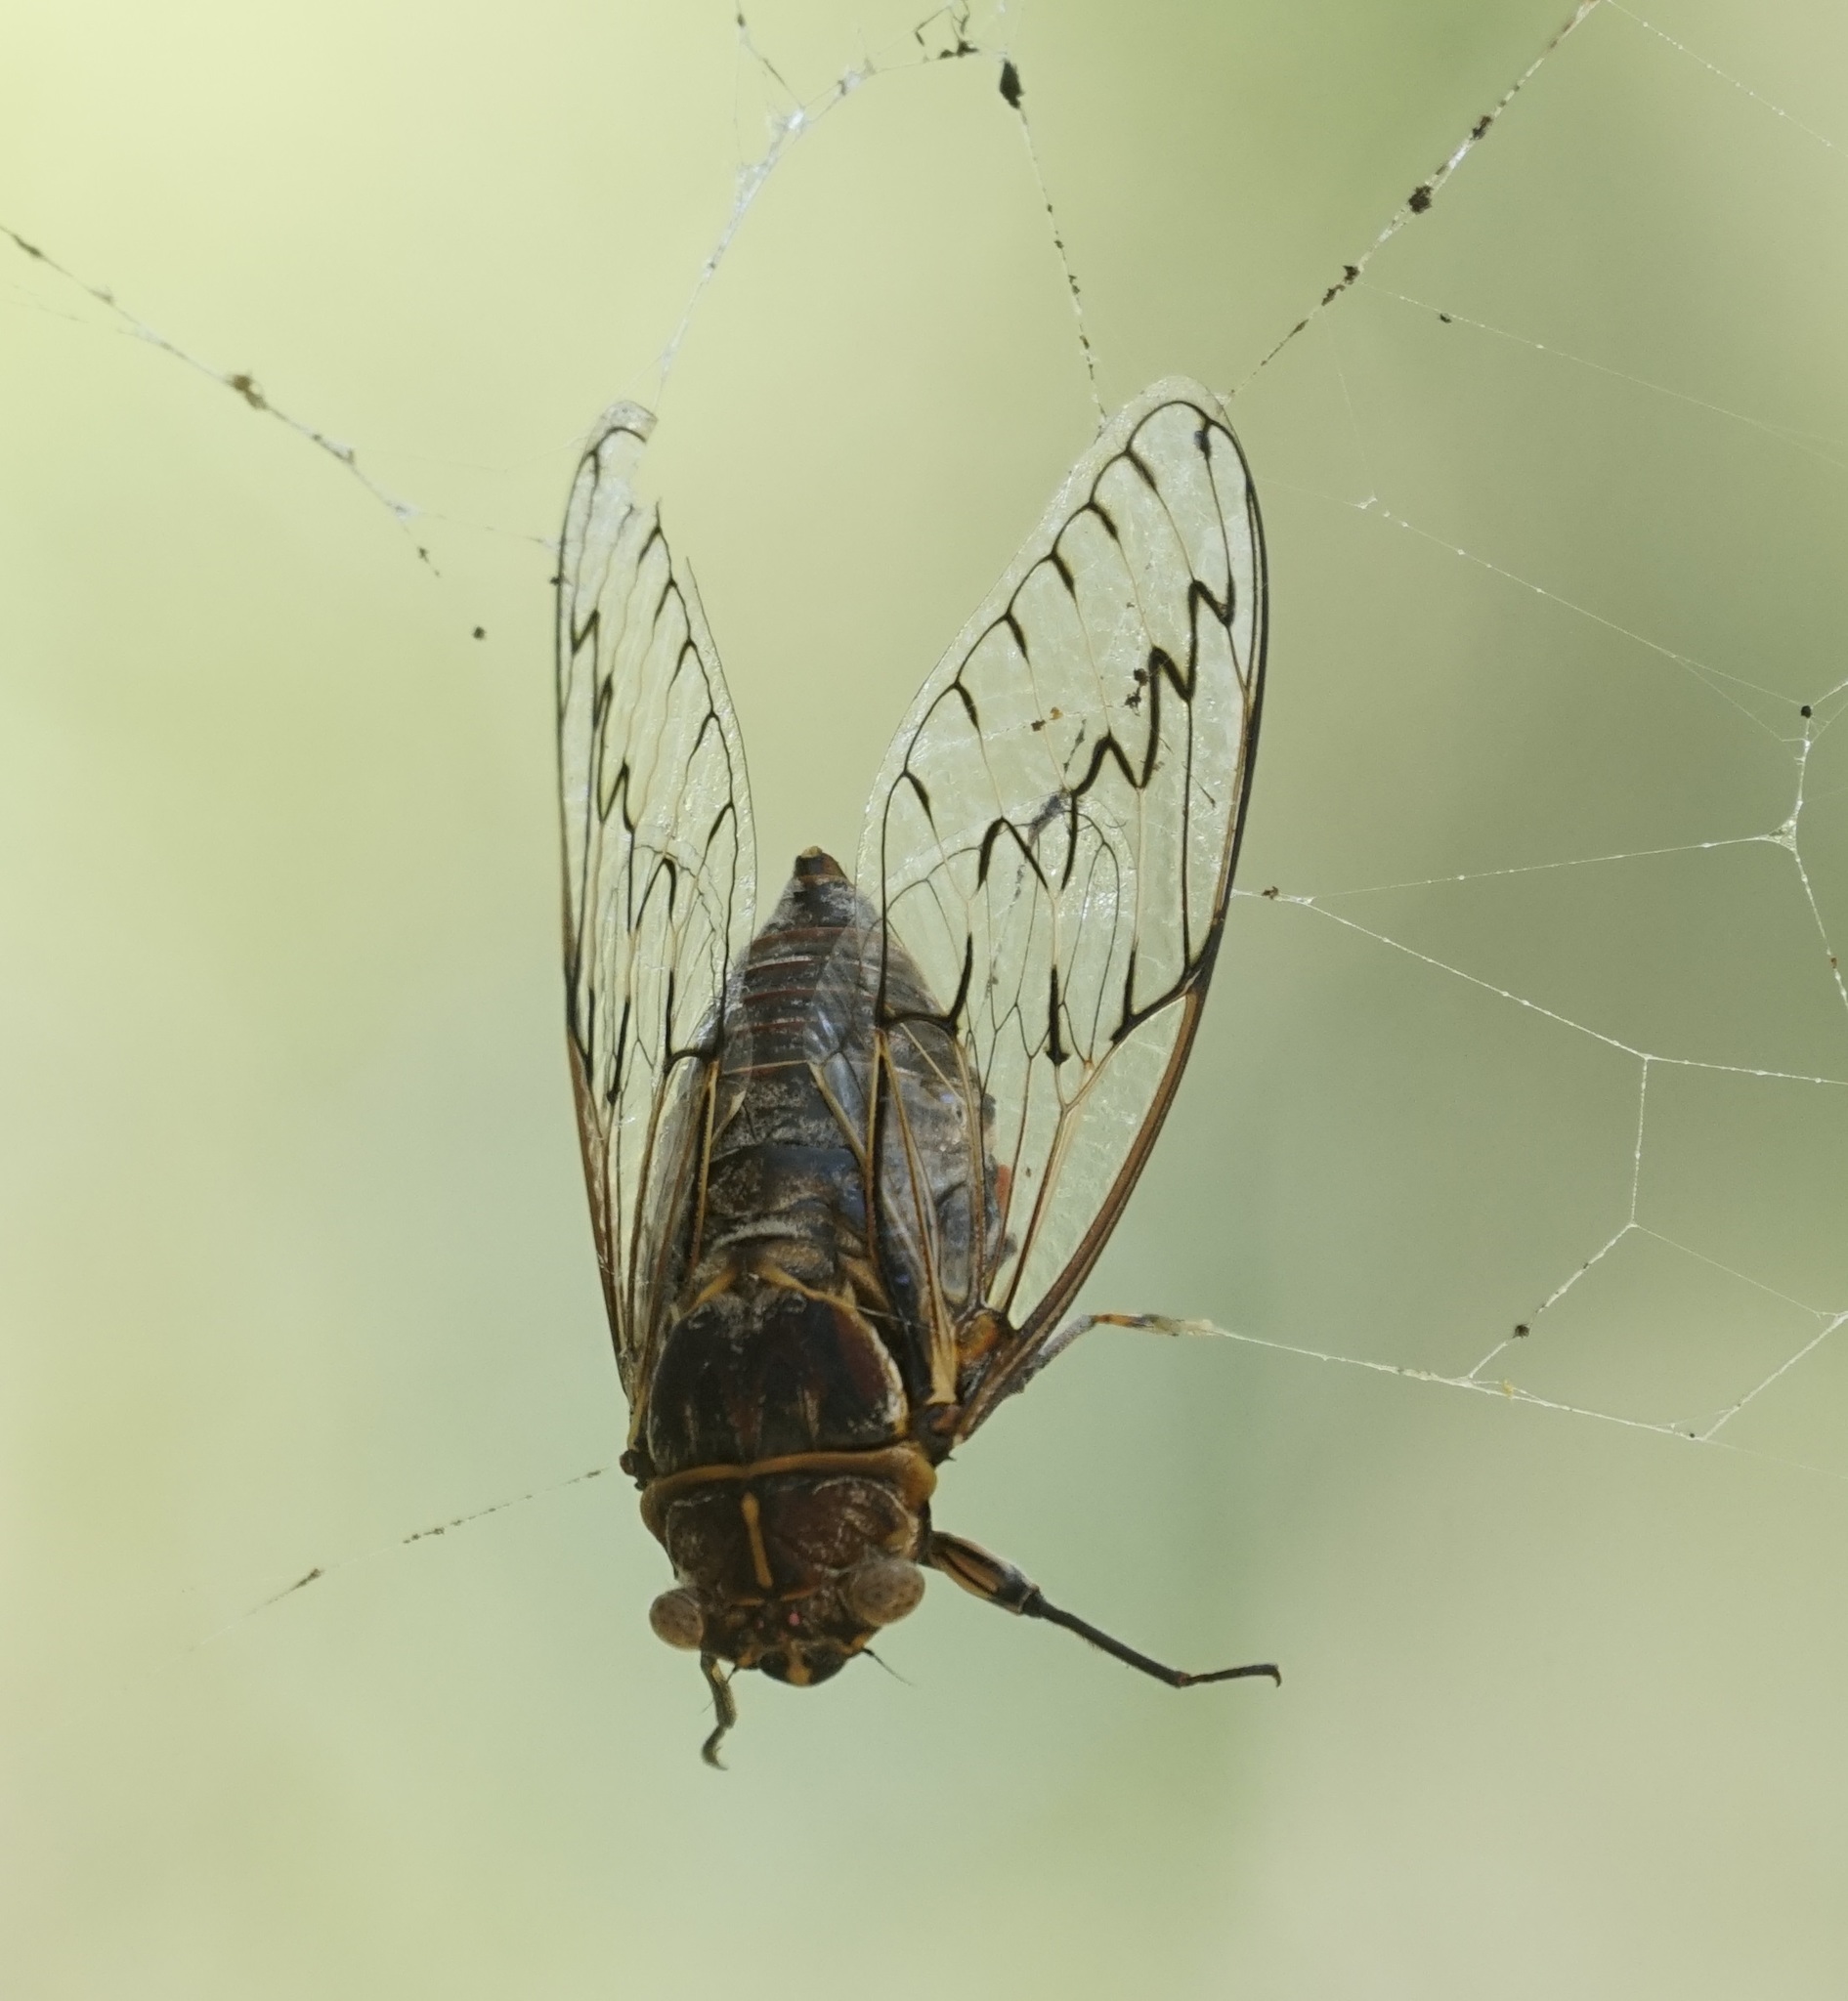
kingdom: Animalia
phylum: Arthropoda
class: Insecta
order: Hemiptera
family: Cicadidae
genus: Henicopsaltria
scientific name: Henicopsaltria eydouxii
